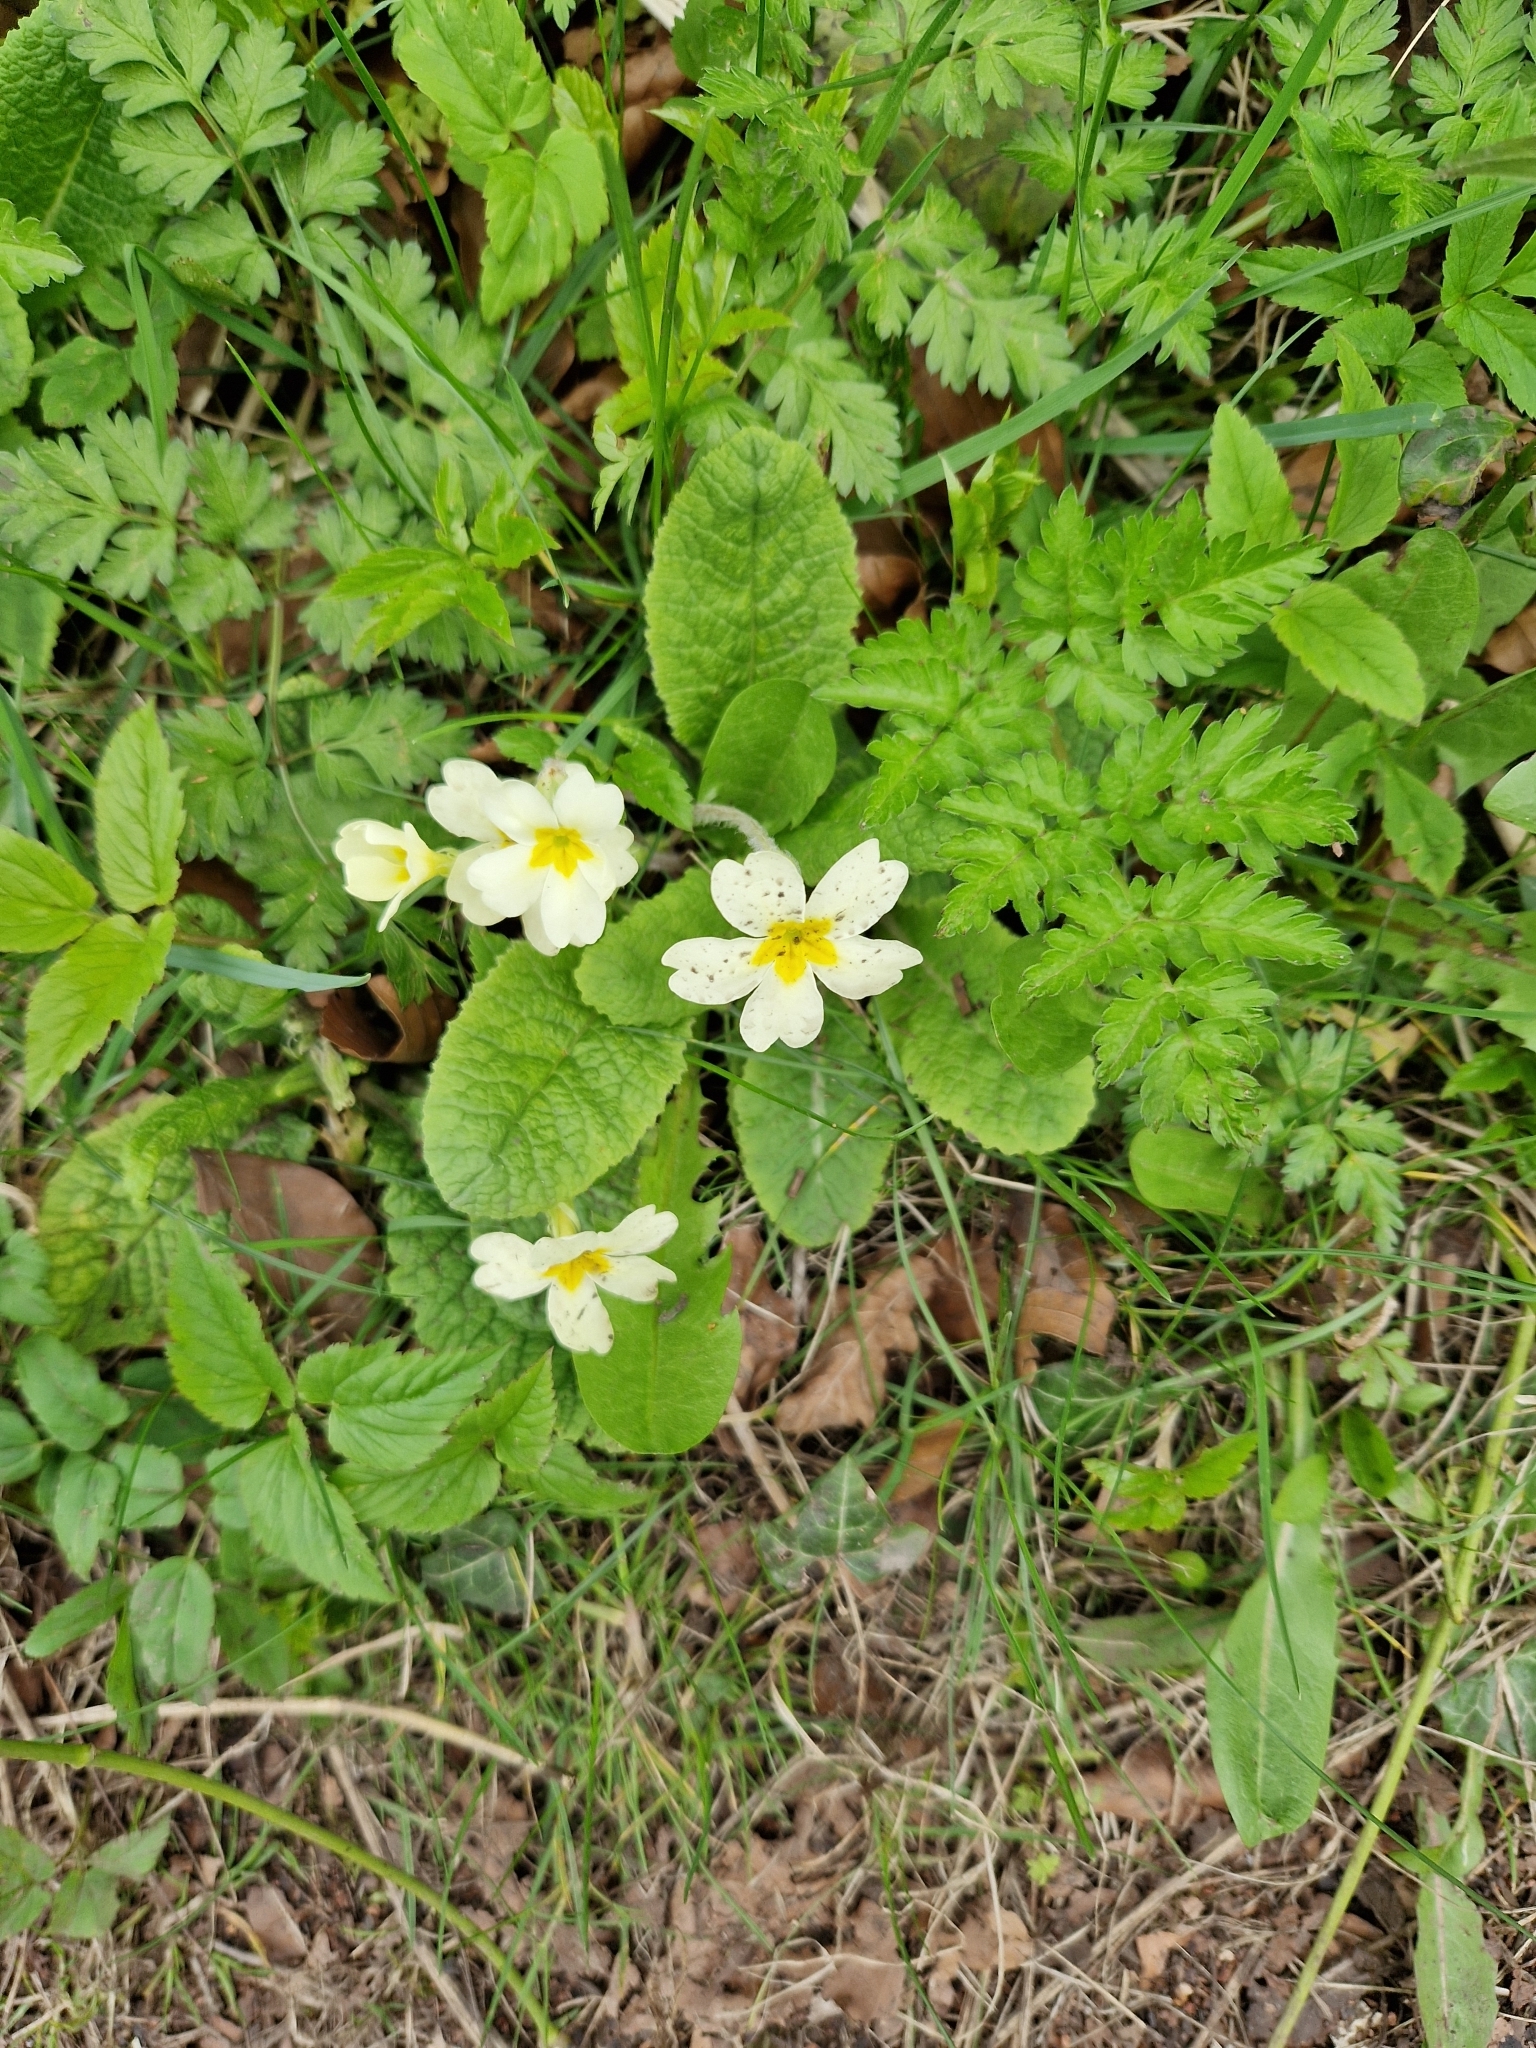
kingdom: Plantae
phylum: Tracheophyta
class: Magnoliopsida
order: Ericales
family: Primulaceae
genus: Primula
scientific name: Primula vulgaris
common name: Primrose
